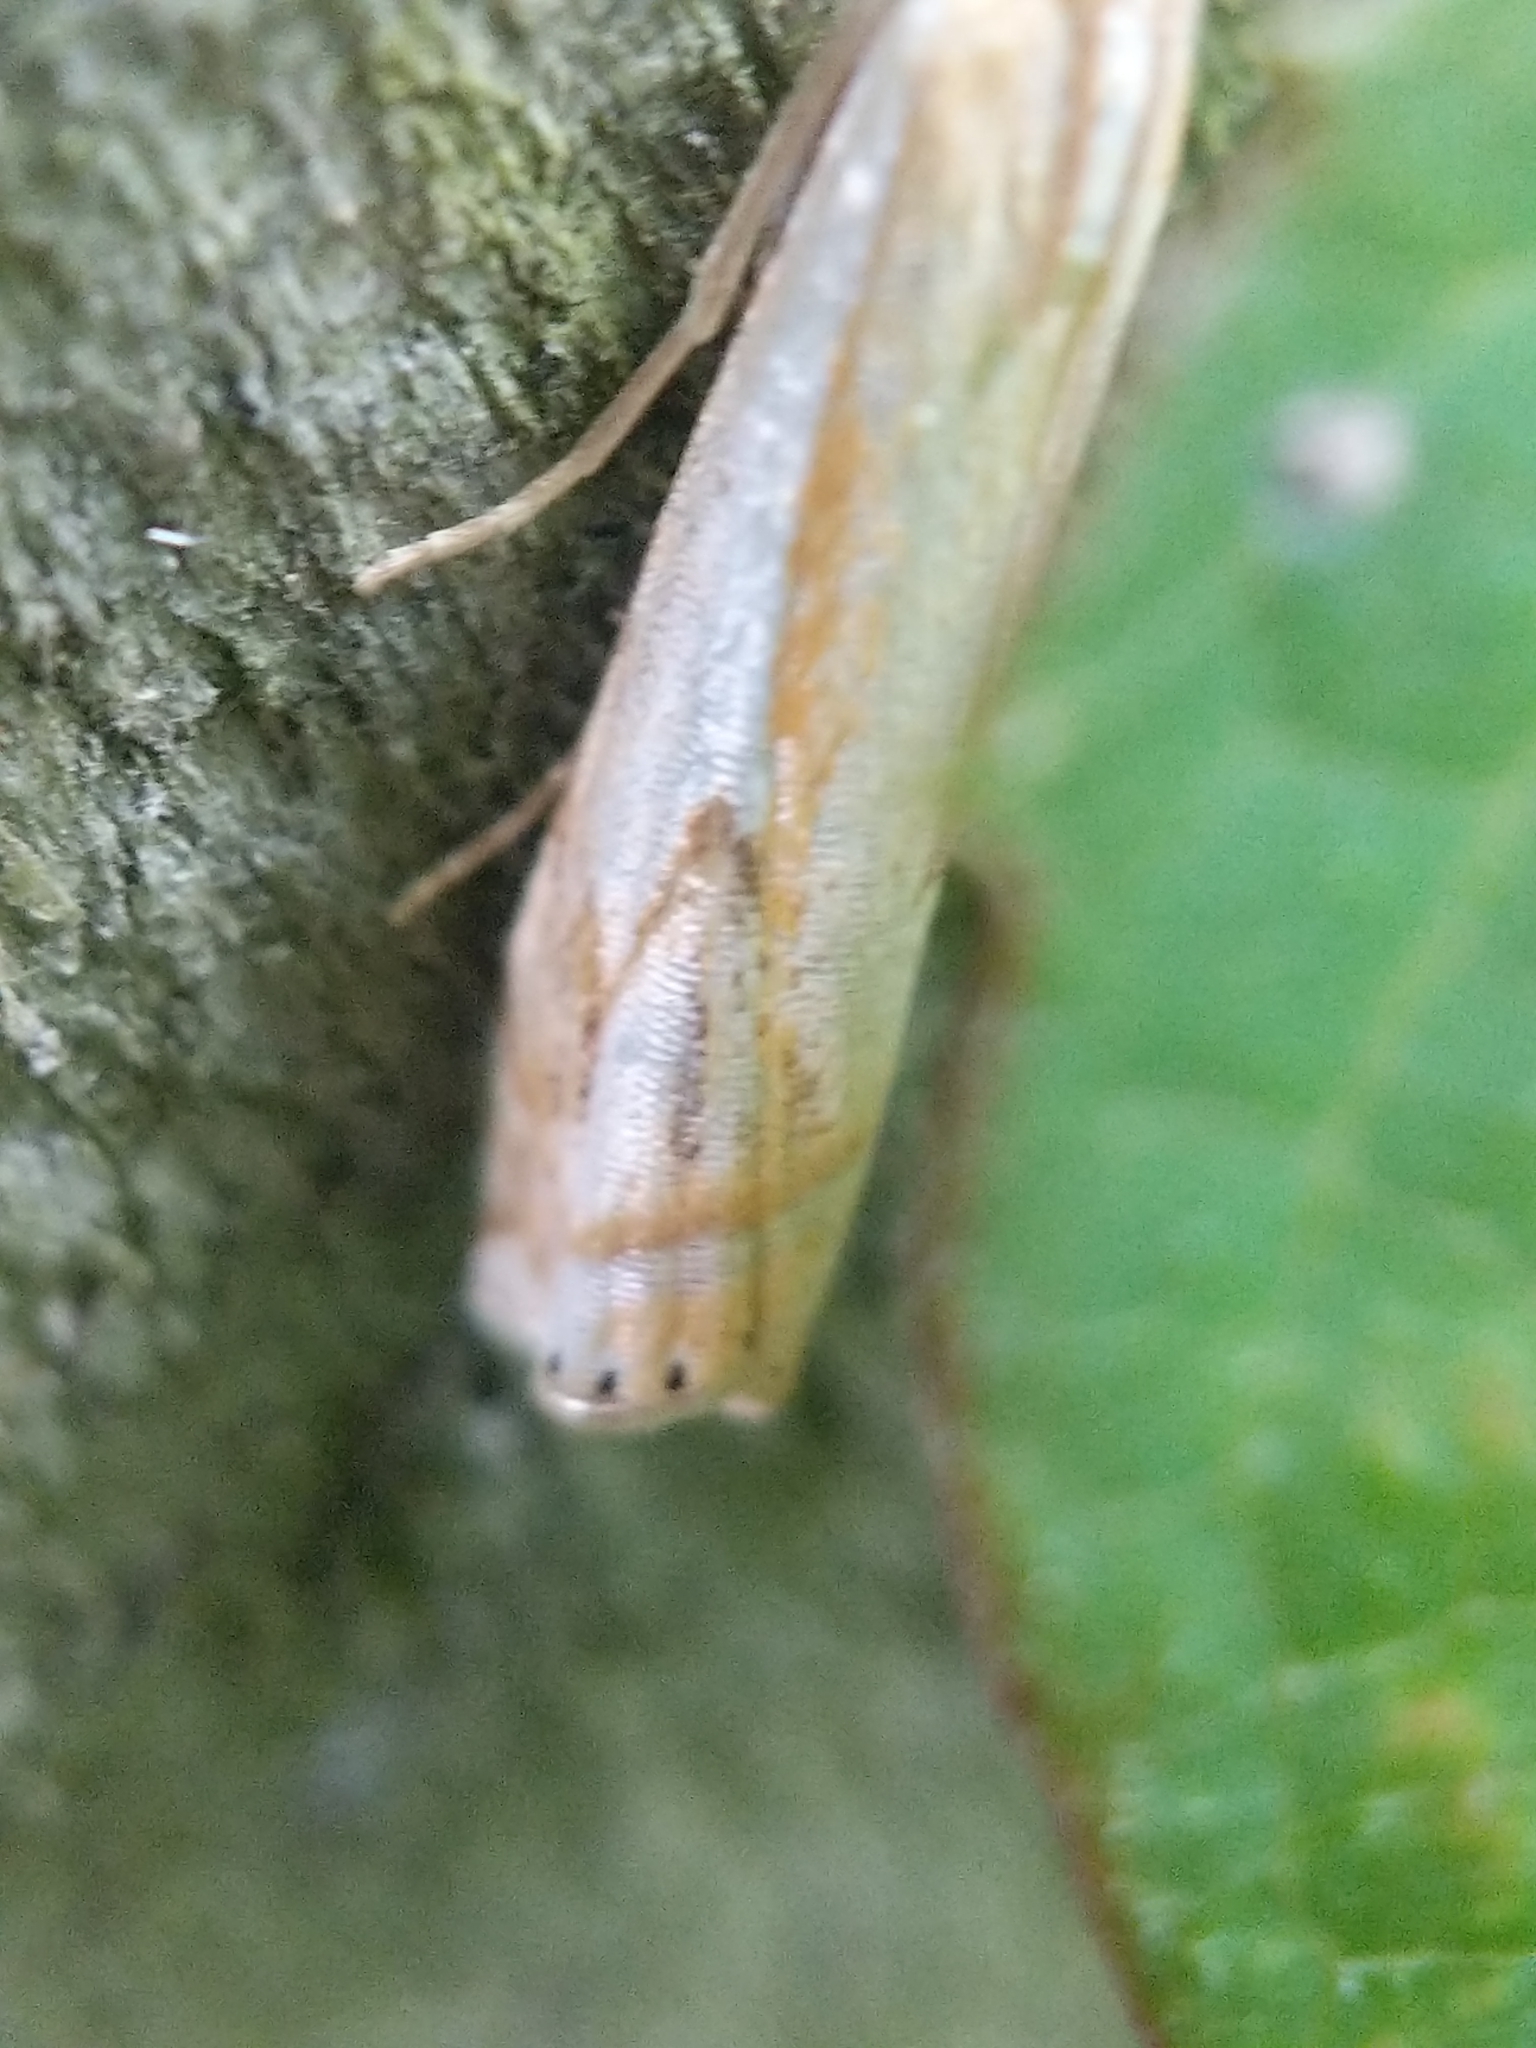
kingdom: Animalia
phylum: Arthropoda
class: Insecta
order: Lepidoptera
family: Crambidae
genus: Crambus
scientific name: Crambus agitatellus
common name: Double-banded grass-veneer
